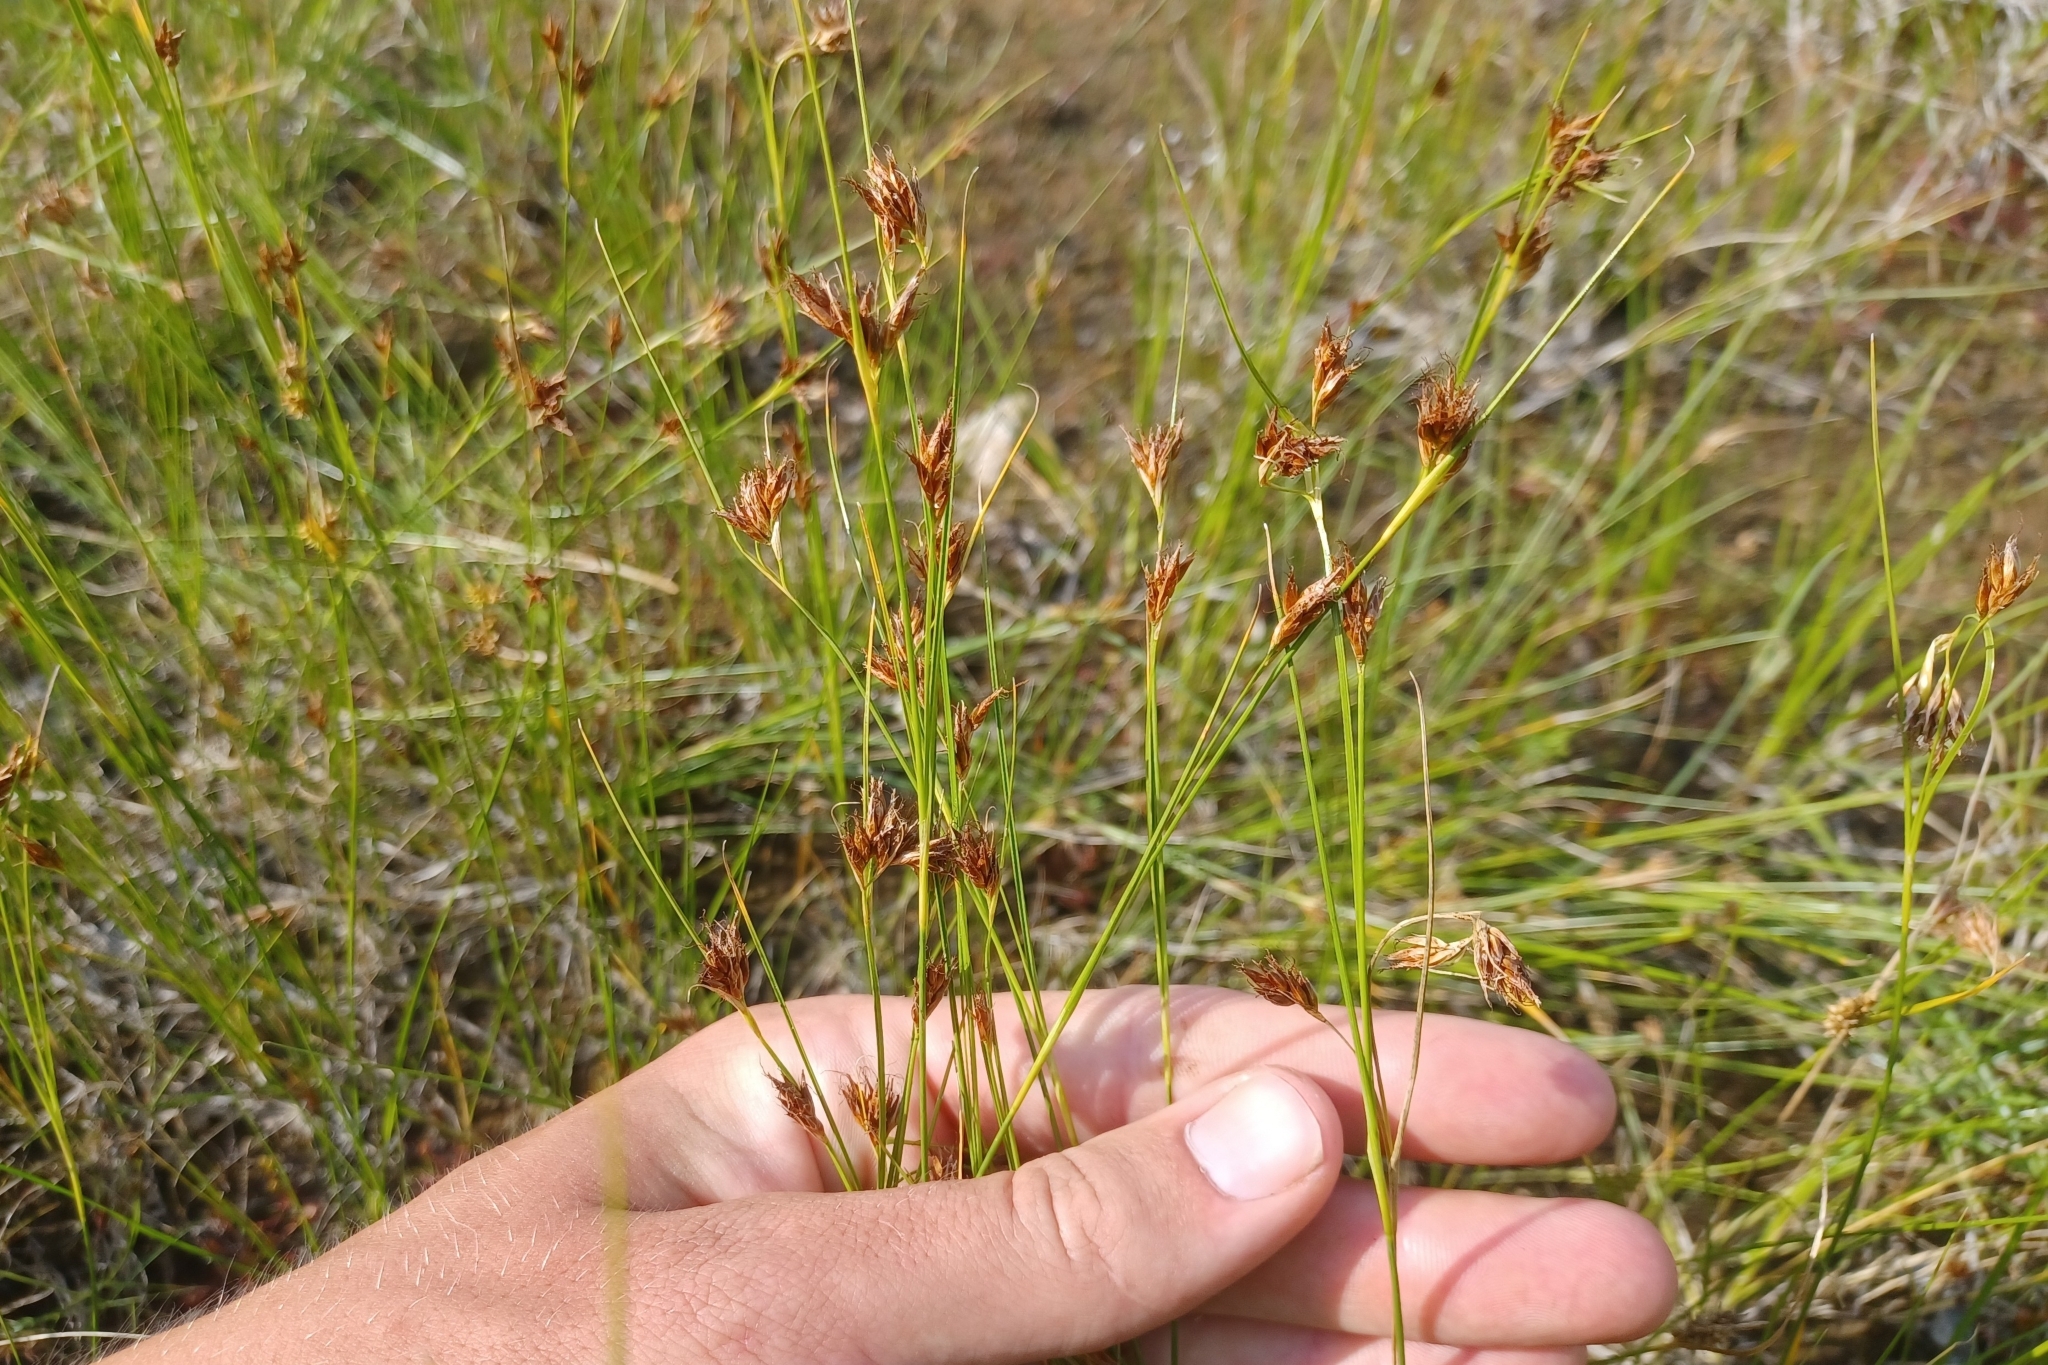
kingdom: Plantae
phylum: Tracheophyta
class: Liliopsida
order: Poales
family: Cyperaceae
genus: Rhynchospora
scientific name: Rhynchospora fusca
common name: Brown beak-sedge
